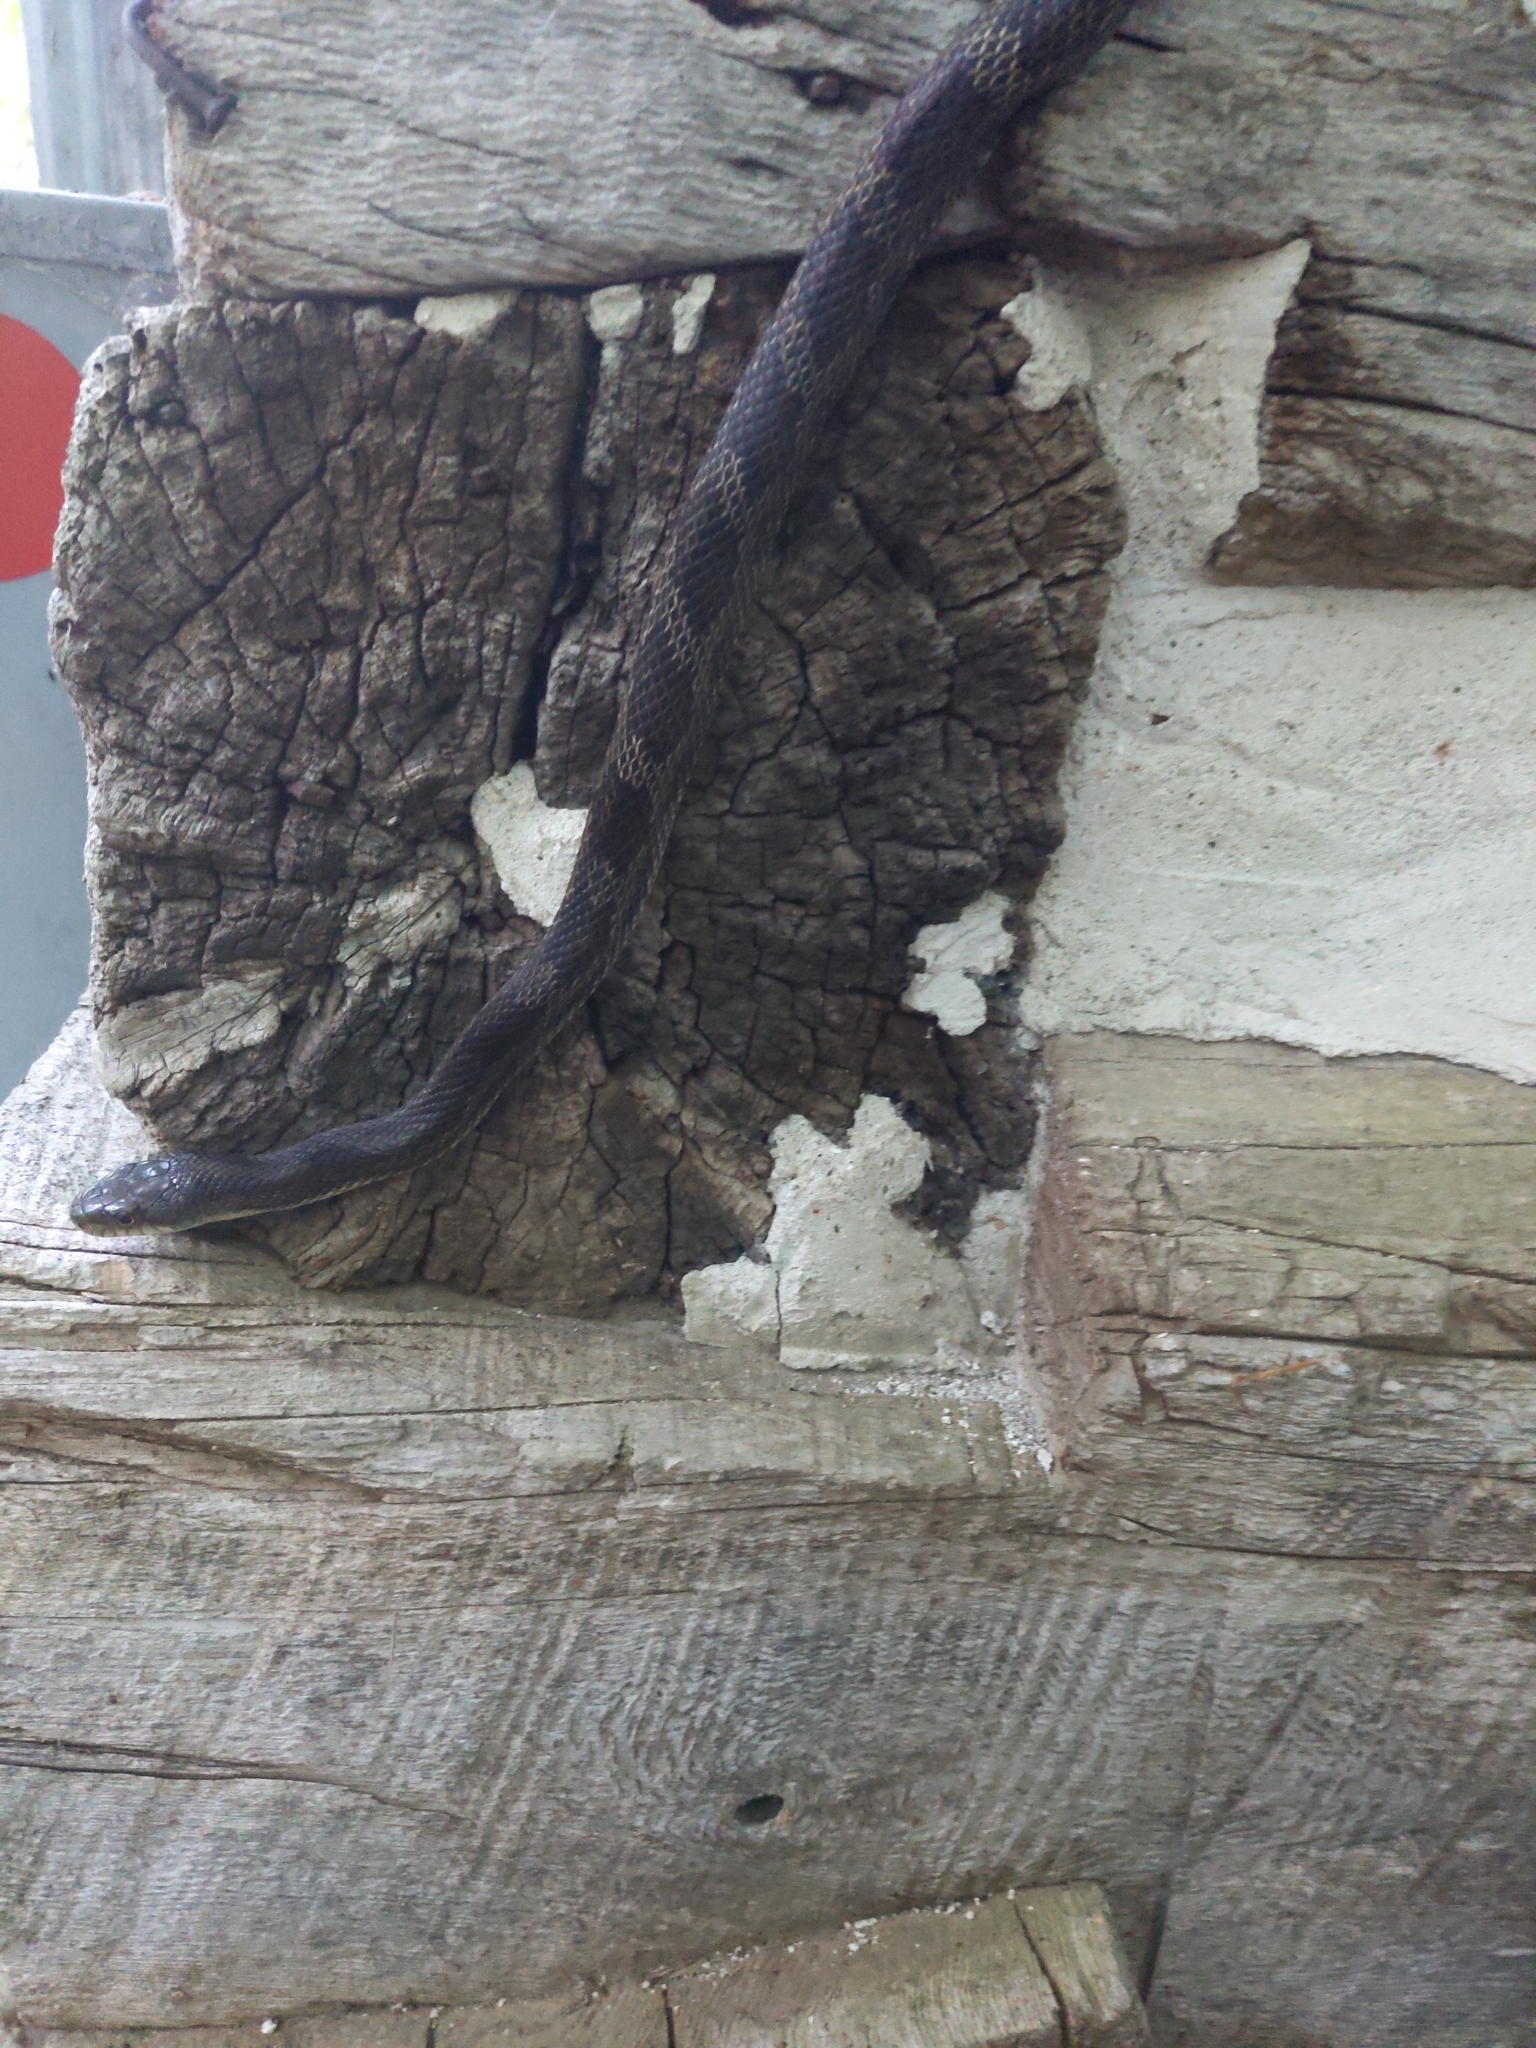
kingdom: Animalia
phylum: Chordata
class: Squamata
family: Colubridae
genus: Pantherophis
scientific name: Pantherophis spiloides
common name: Gray rat snake
